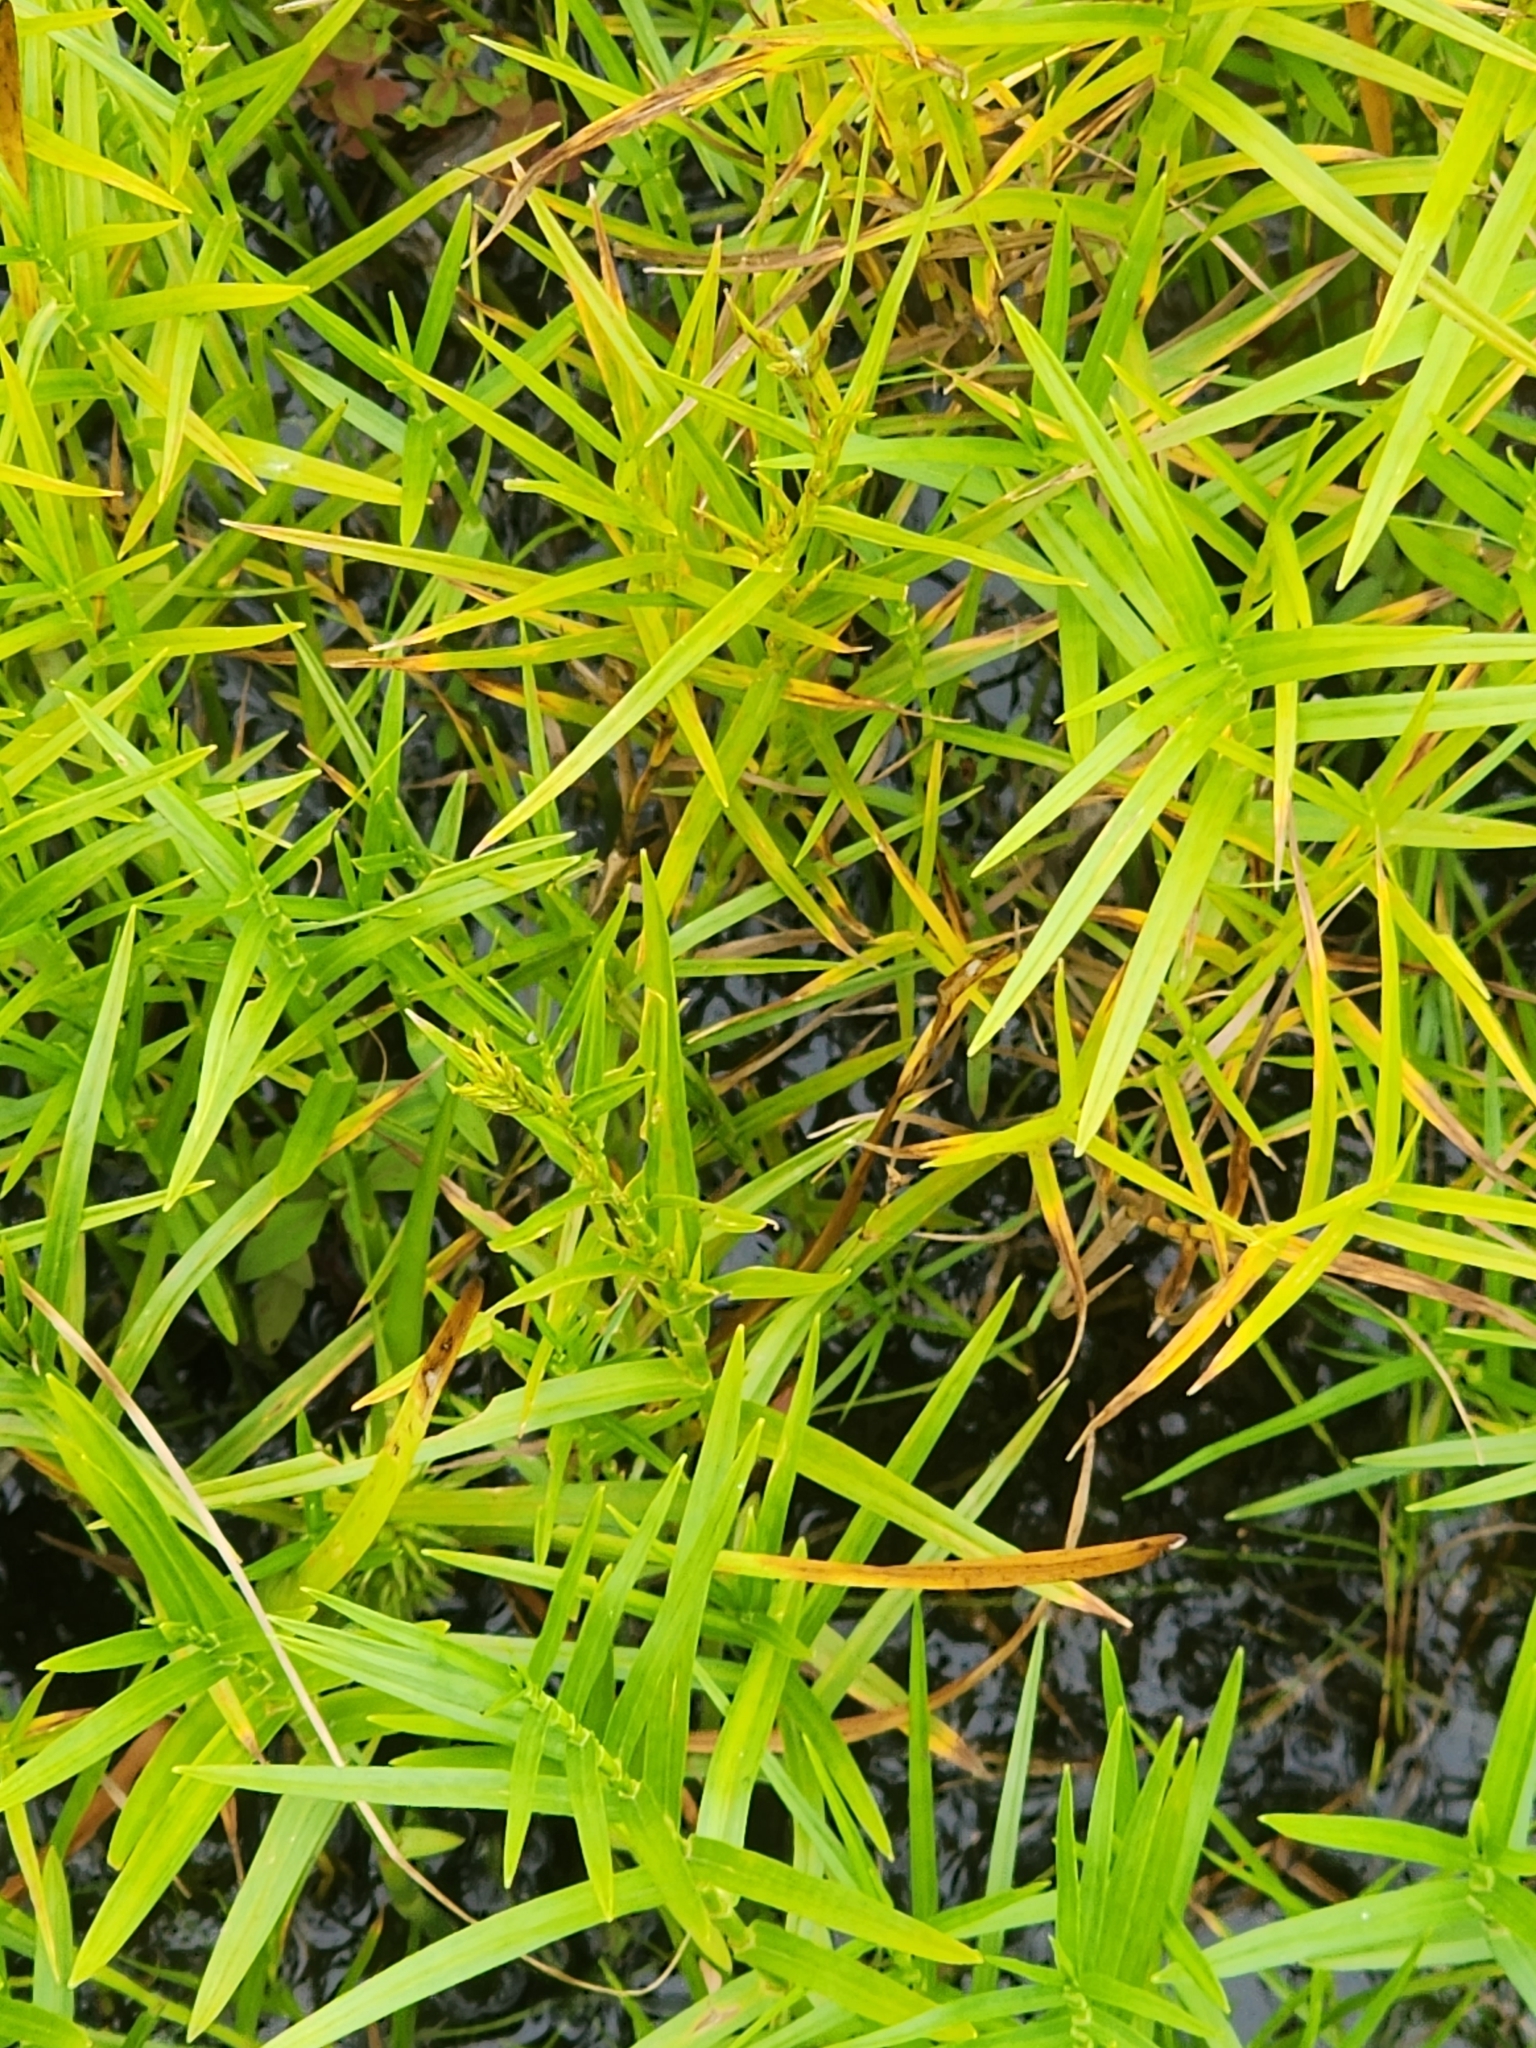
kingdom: Plantae
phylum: Tracheophyta
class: Liliopsida
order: Poales
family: Cyperaceae
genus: Dulichium
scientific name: Dulichium arundinaceum
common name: Three-way sedge
